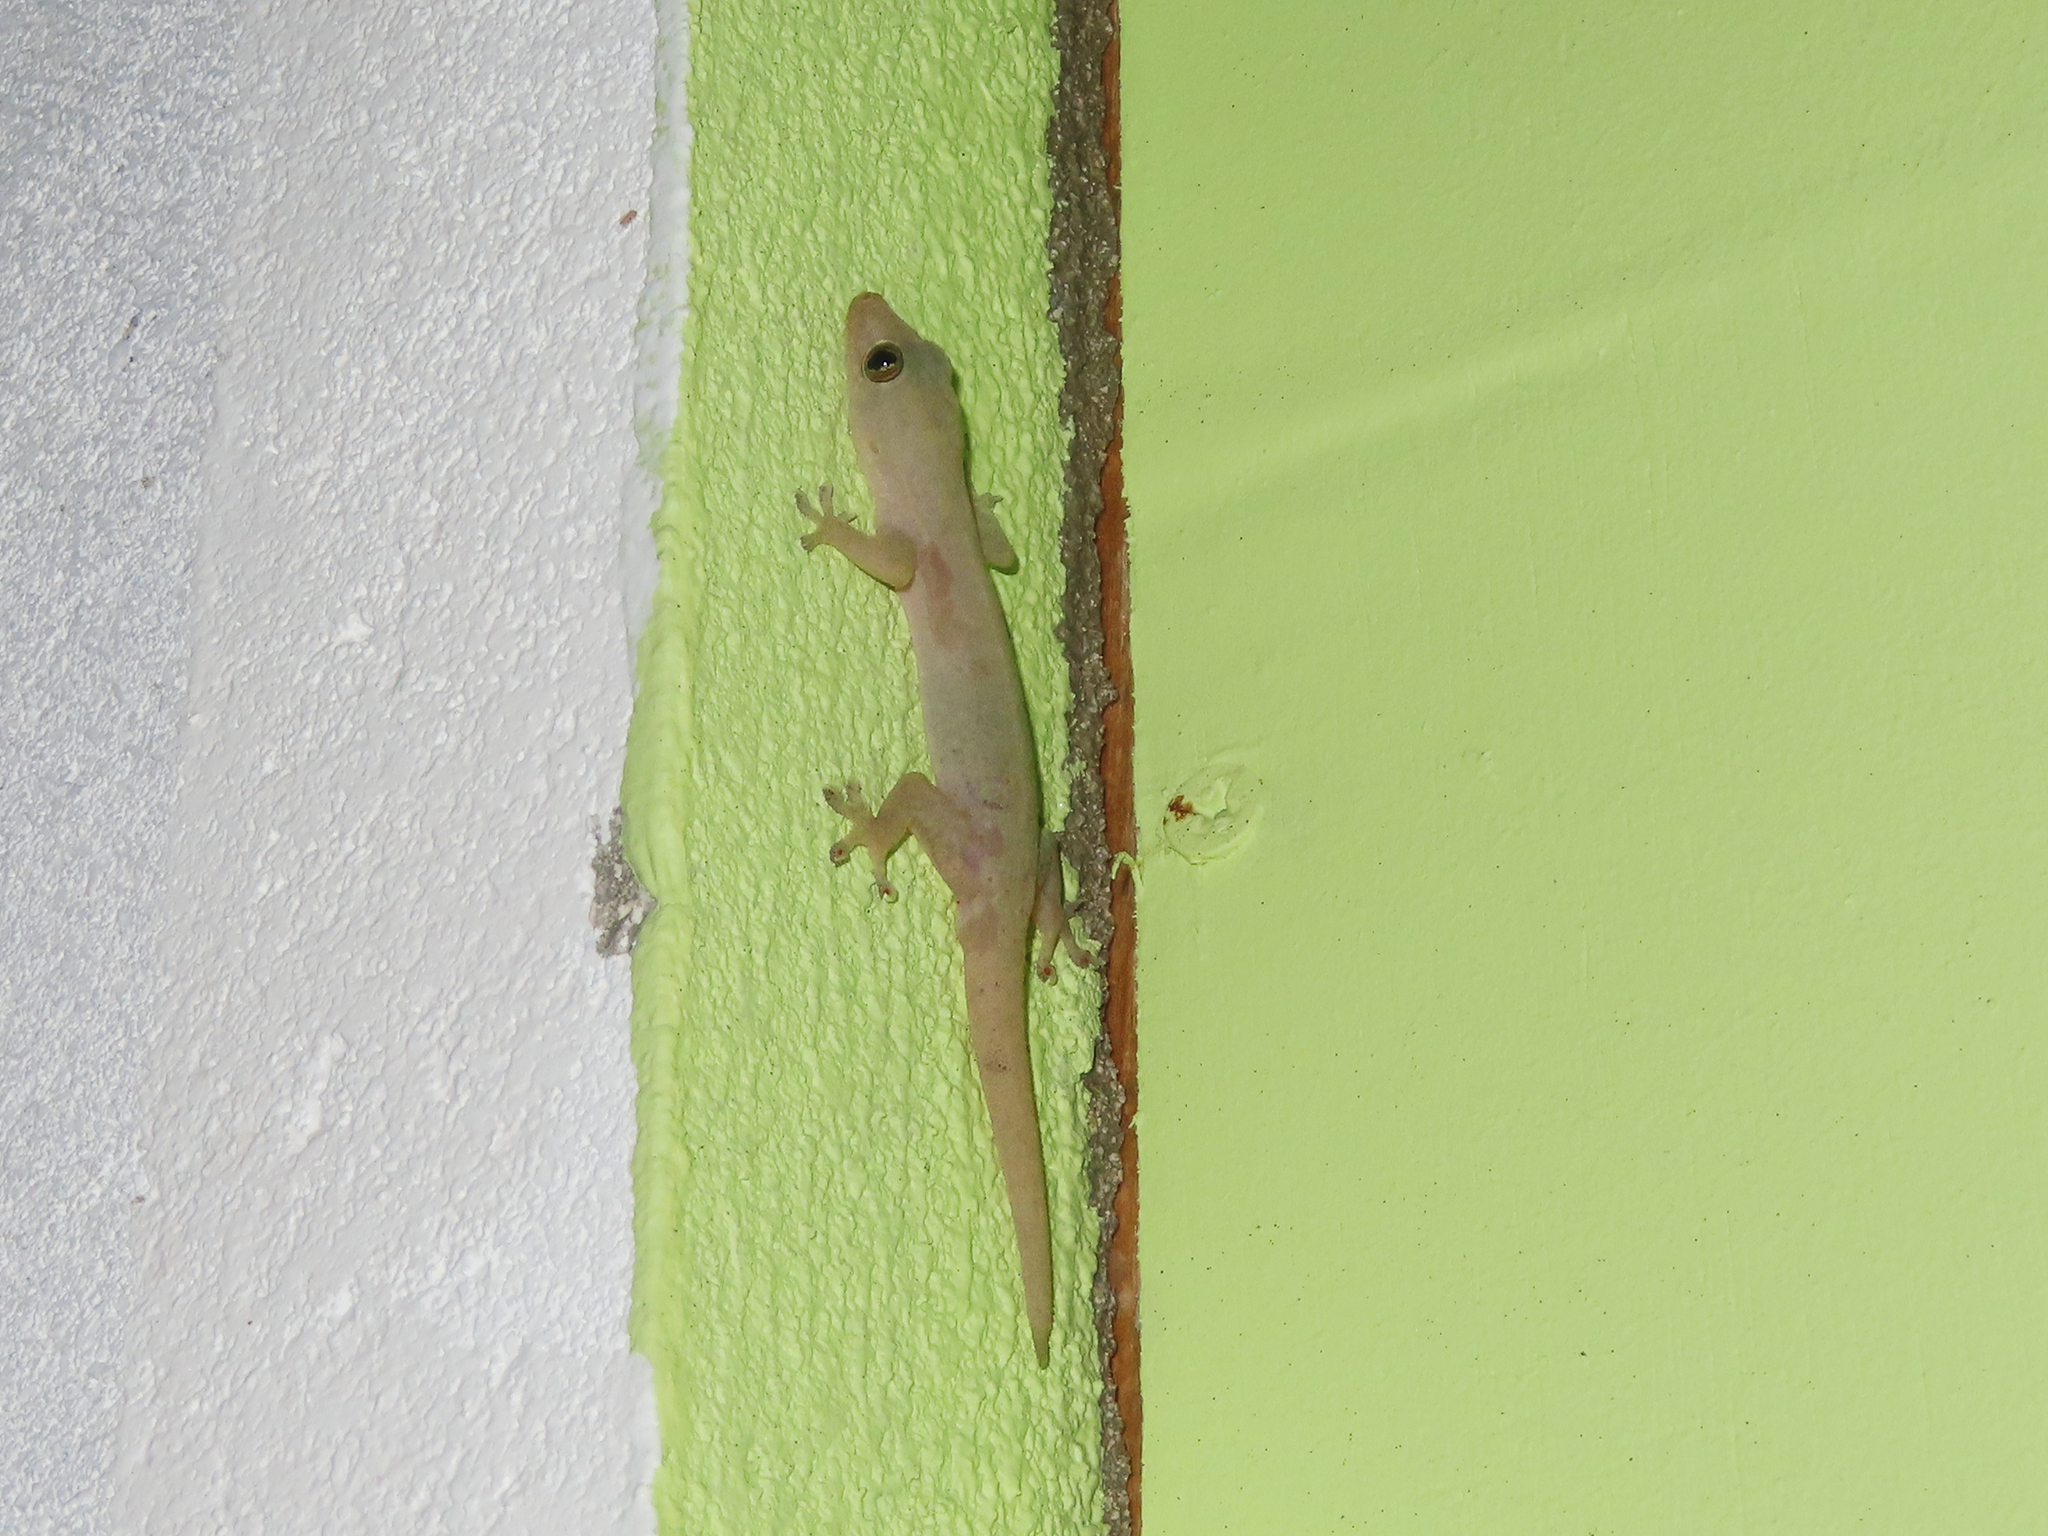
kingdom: Animalia
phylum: Chordata
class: Squamata
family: Gekkonidae
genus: Hemidactylus
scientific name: Hemidactylus frenatus
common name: Common house gecko
